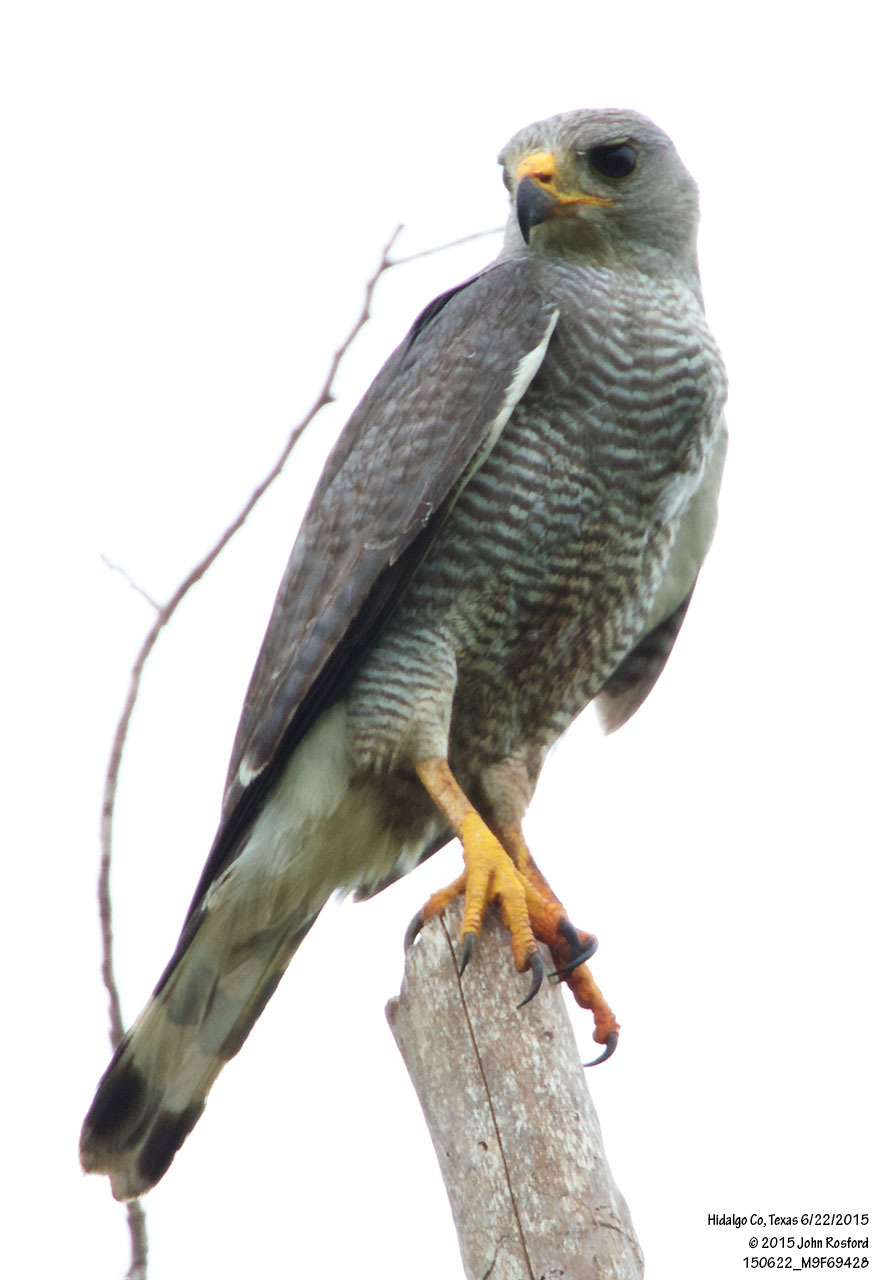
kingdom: Animalia
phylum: Chordata
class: Aves
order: Accipitriformes
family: Accipitridae
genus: Buteo
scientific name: Buteo nitidus
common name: Grey-lined hawk
